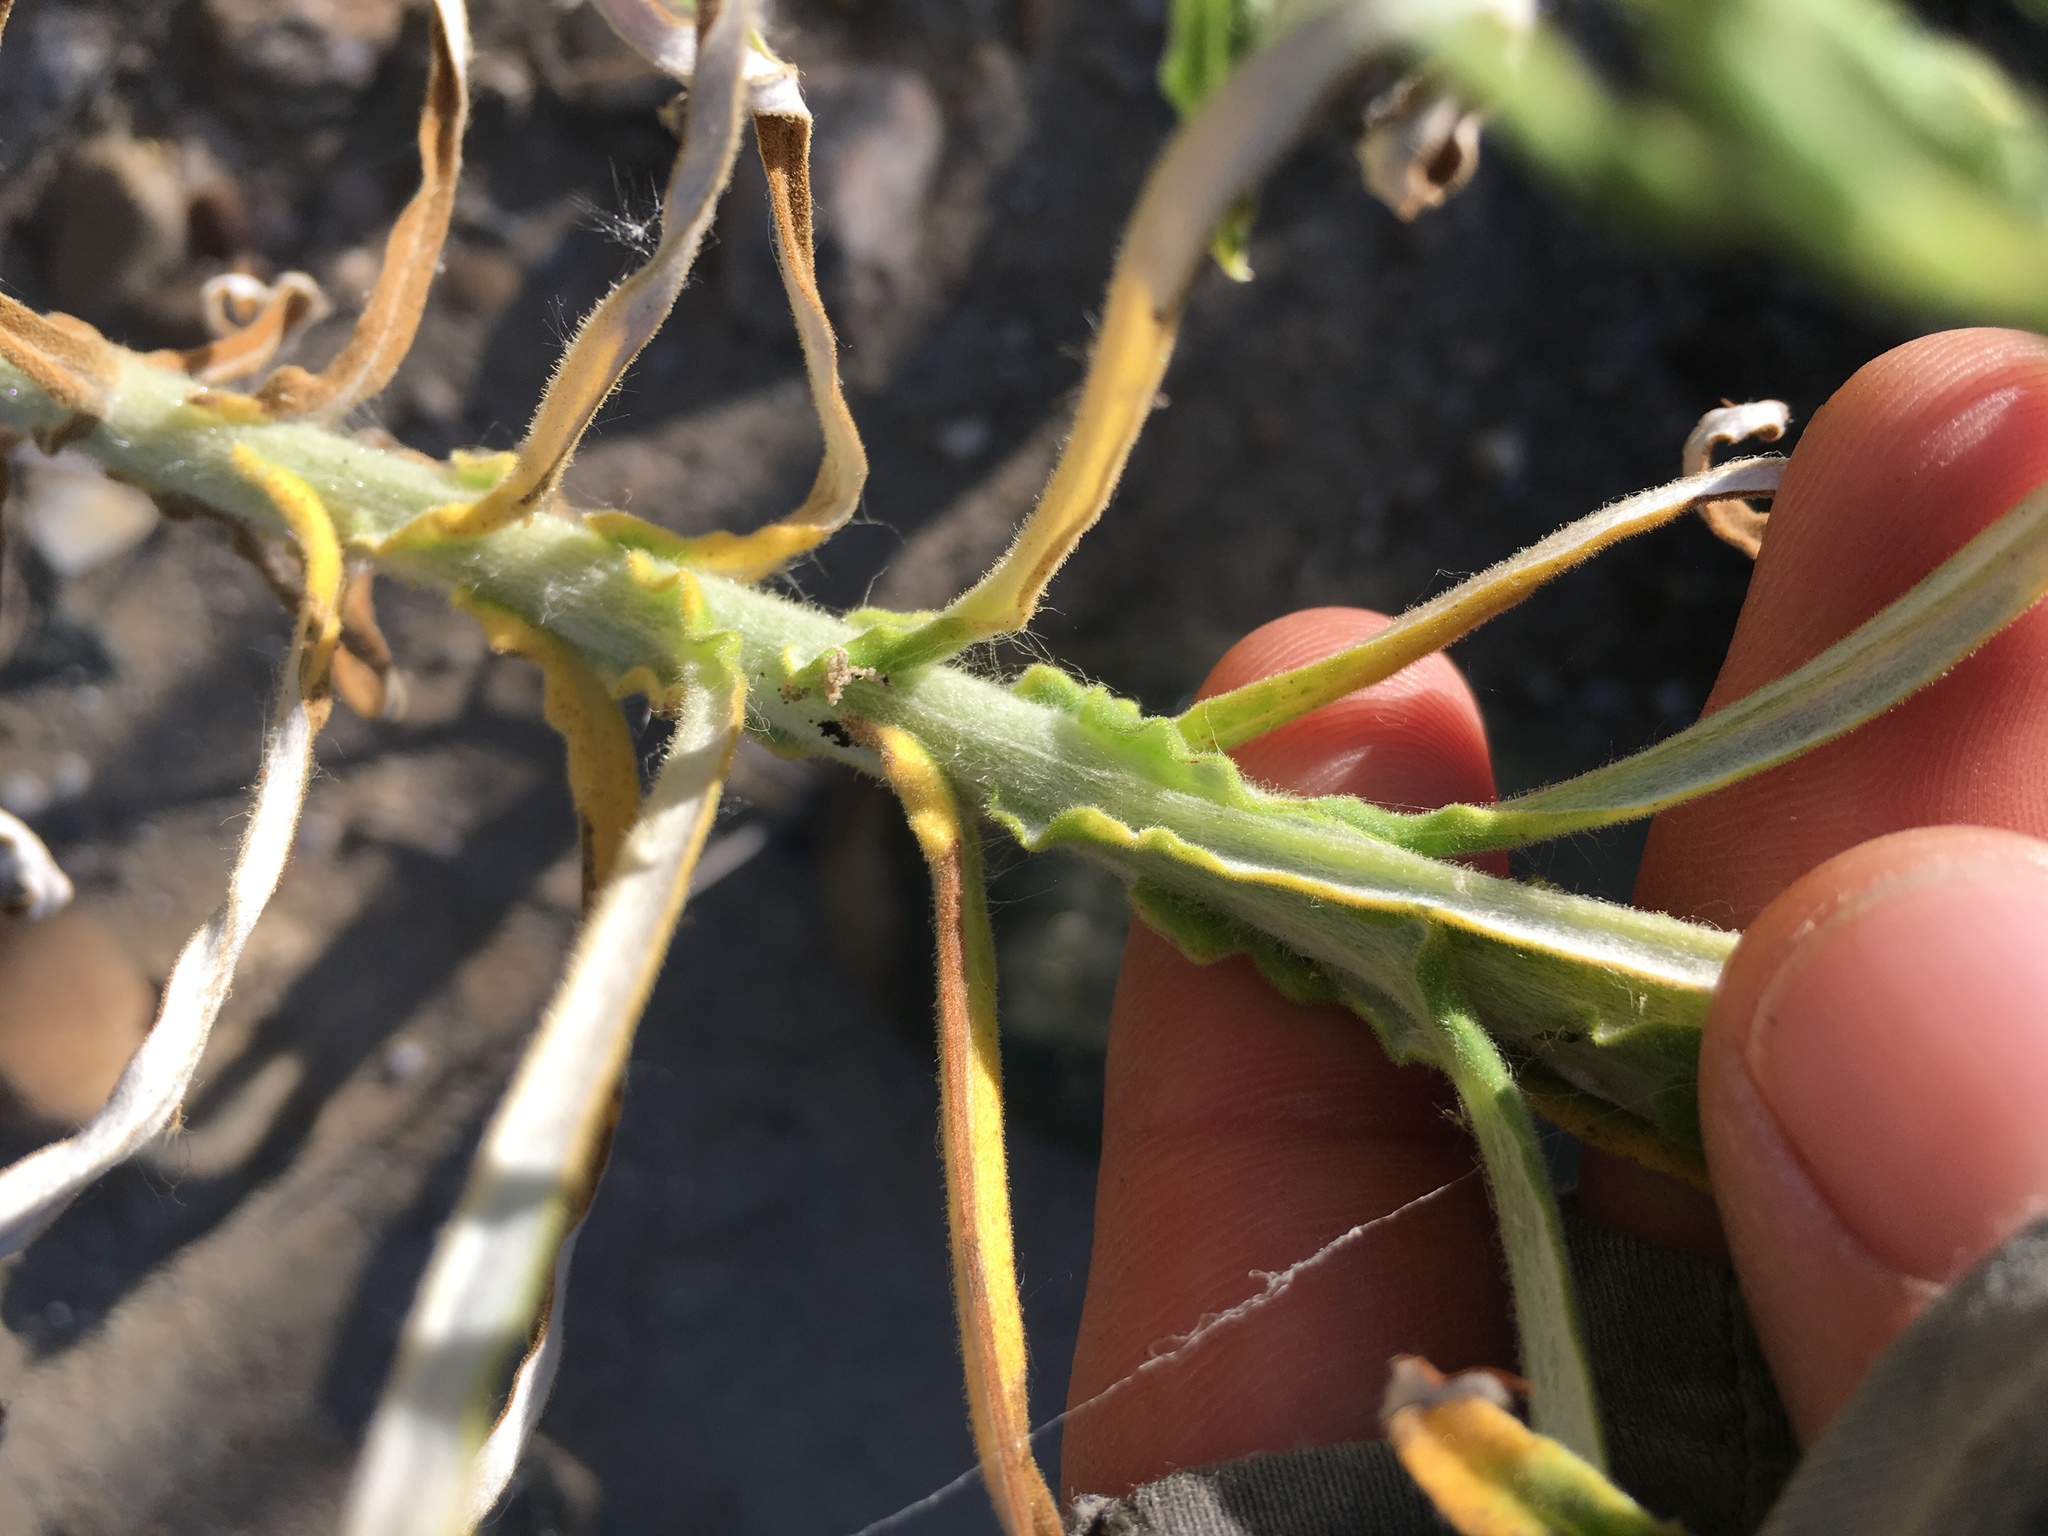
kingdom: Plantae
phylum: Tracheophyta
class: Magnoliopsida
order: Asterales
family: Asteraceae
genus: Pseudognaphalium
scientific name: Pseudognaphalium leucocephalum
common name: White cudweed
